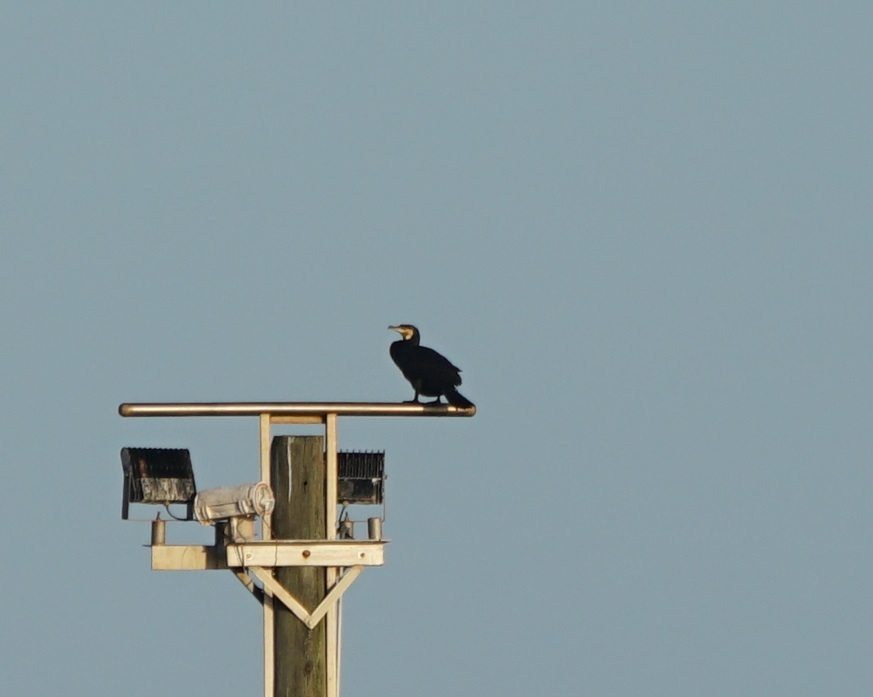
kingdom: Animalia
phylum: Chordata
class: Aves
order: Suliformes
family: Phalacrocoracidae
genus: Phalacrocorax
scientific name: Phalacrocorax carbo
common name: Great cormorant
